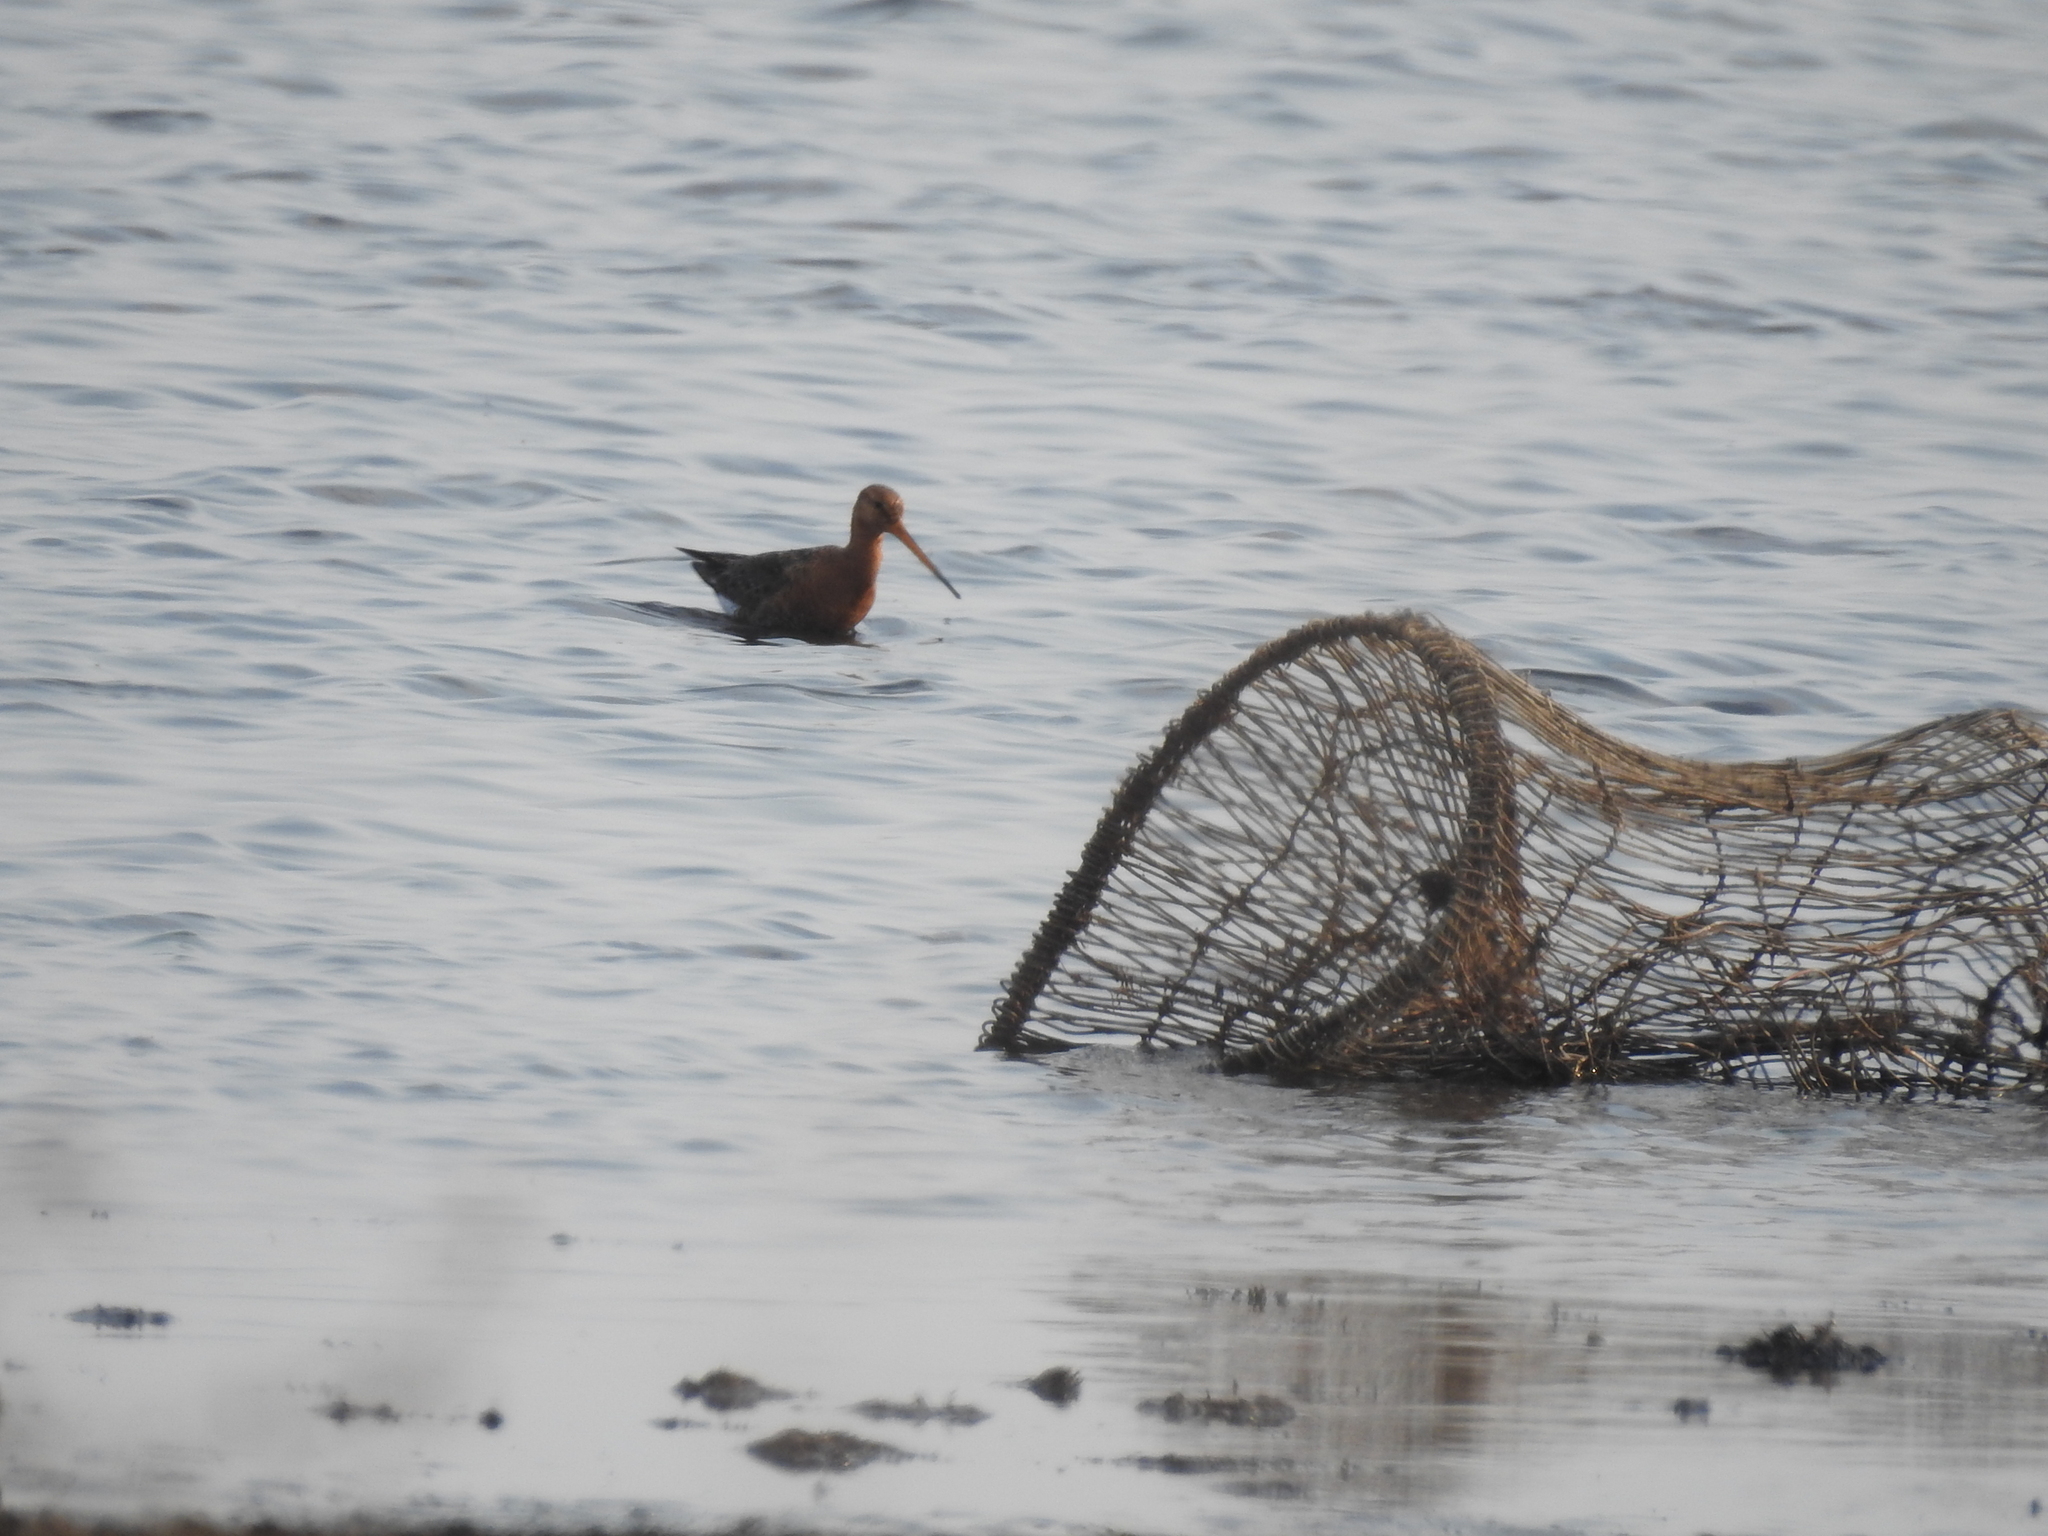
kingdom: Animalia
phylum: Chordata
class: Aves
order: Charadriiformes
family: Scolopacidae
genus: Limosa
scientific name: Limosa limosa
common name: Black-tailed godwit
